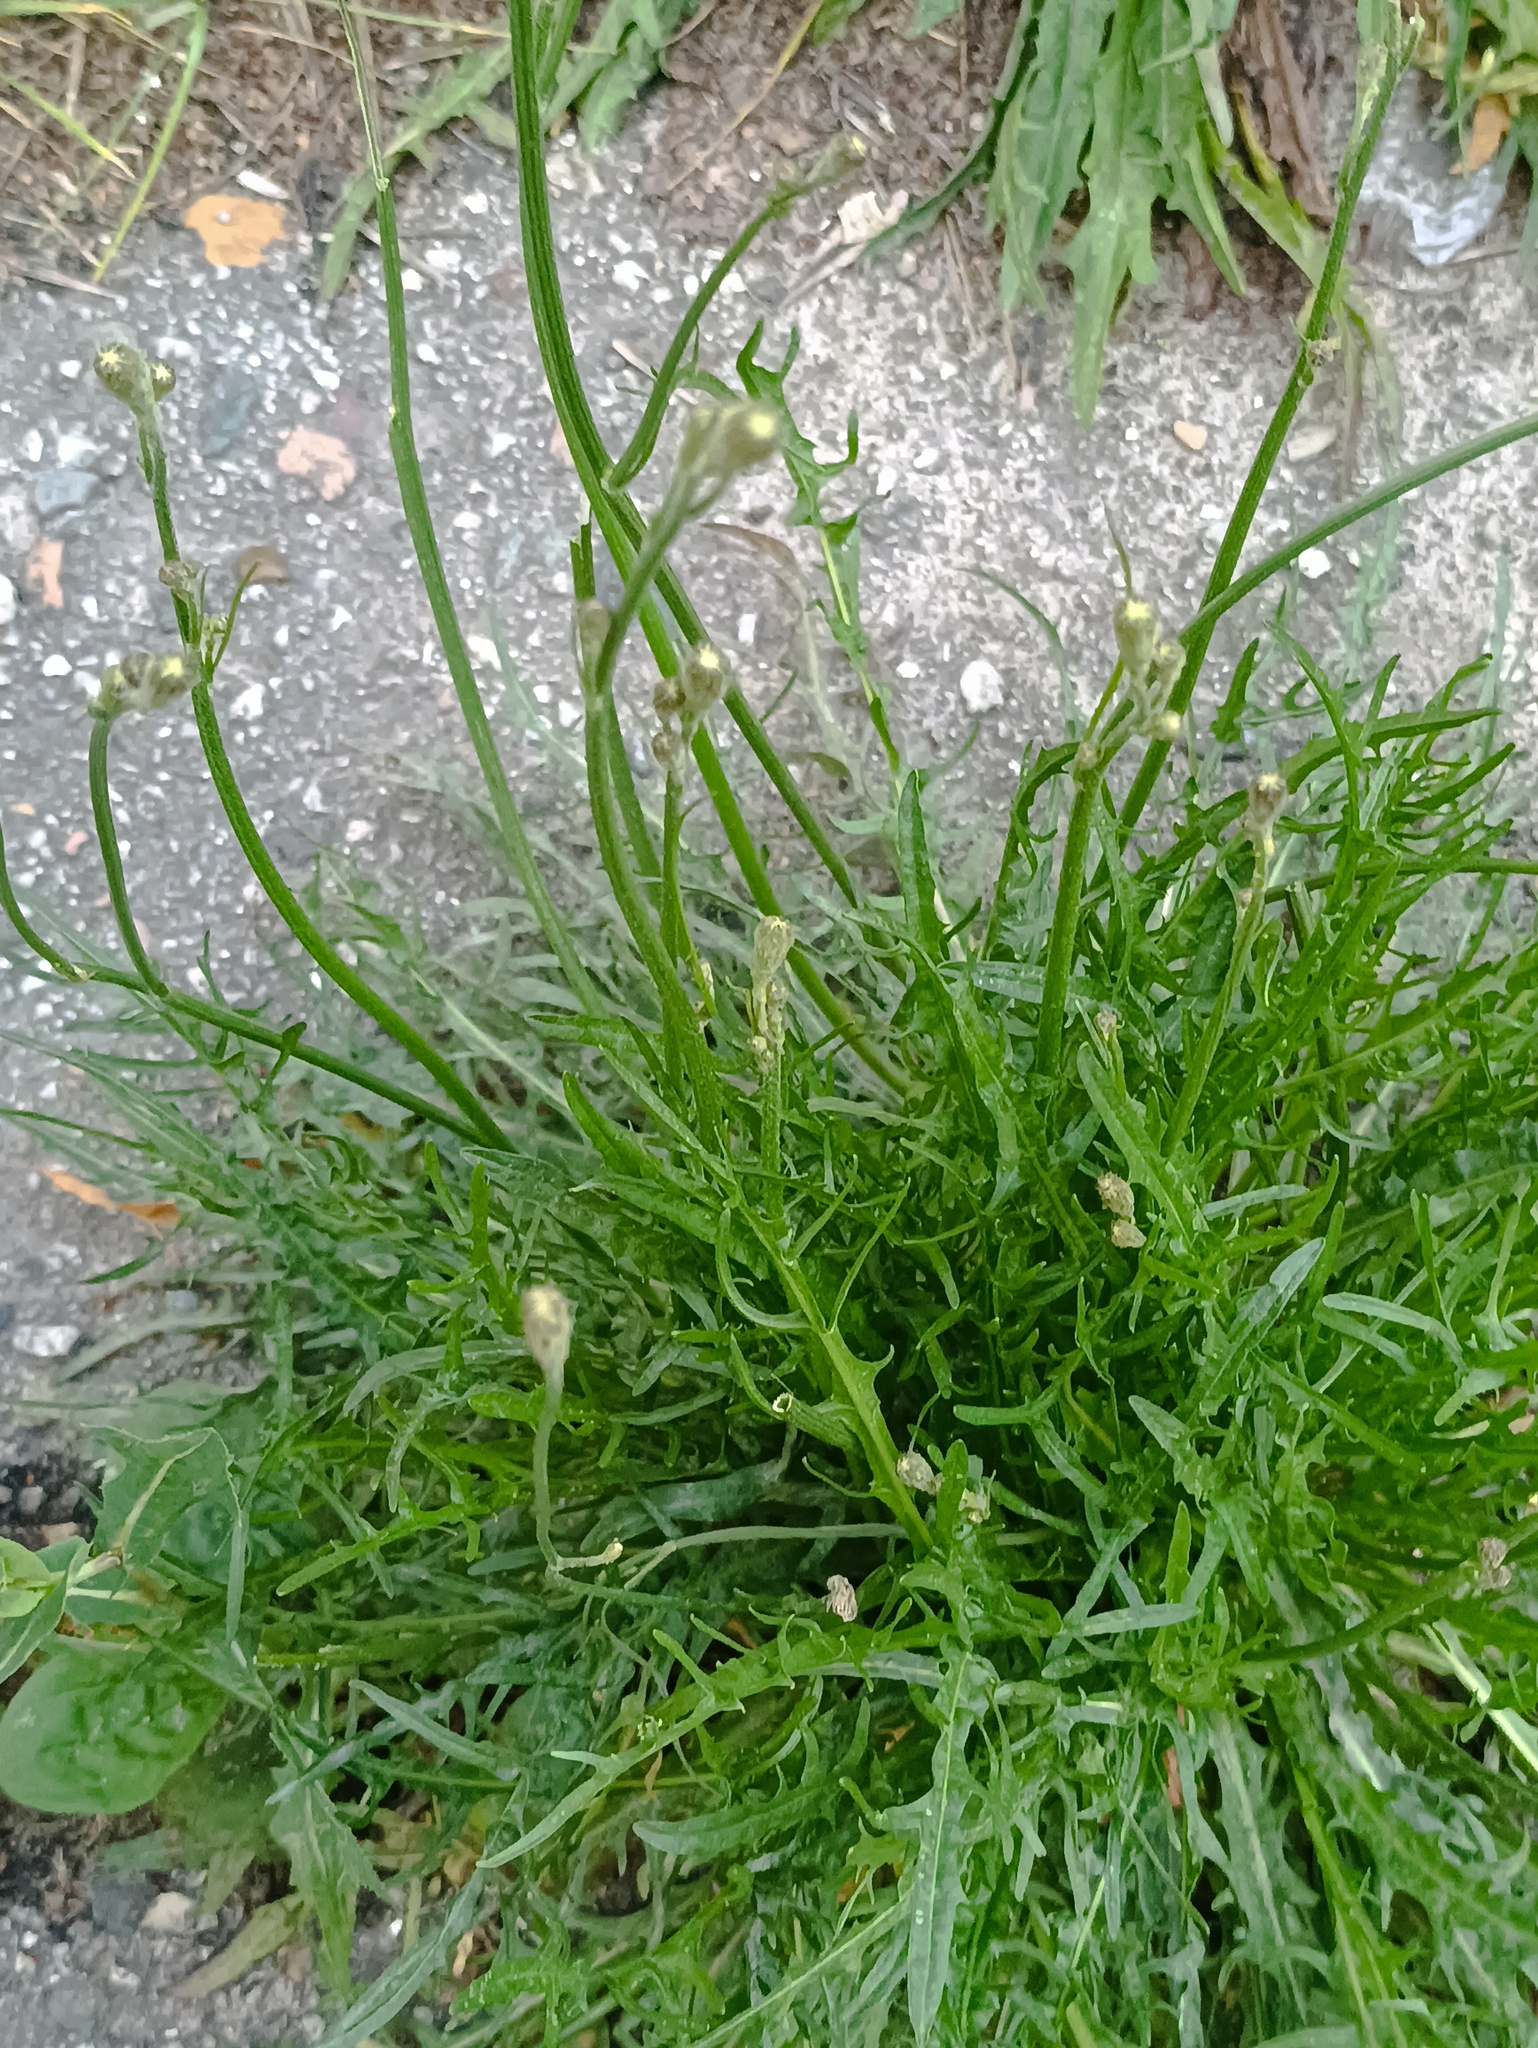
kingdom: Plantae
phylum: Tracheophyta
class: Magnoliopsida
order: Asterales
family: Asteraceae
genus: Scorzoneroides
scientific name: Scorzoneroides autumnalis
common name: Autumn hawkbit
